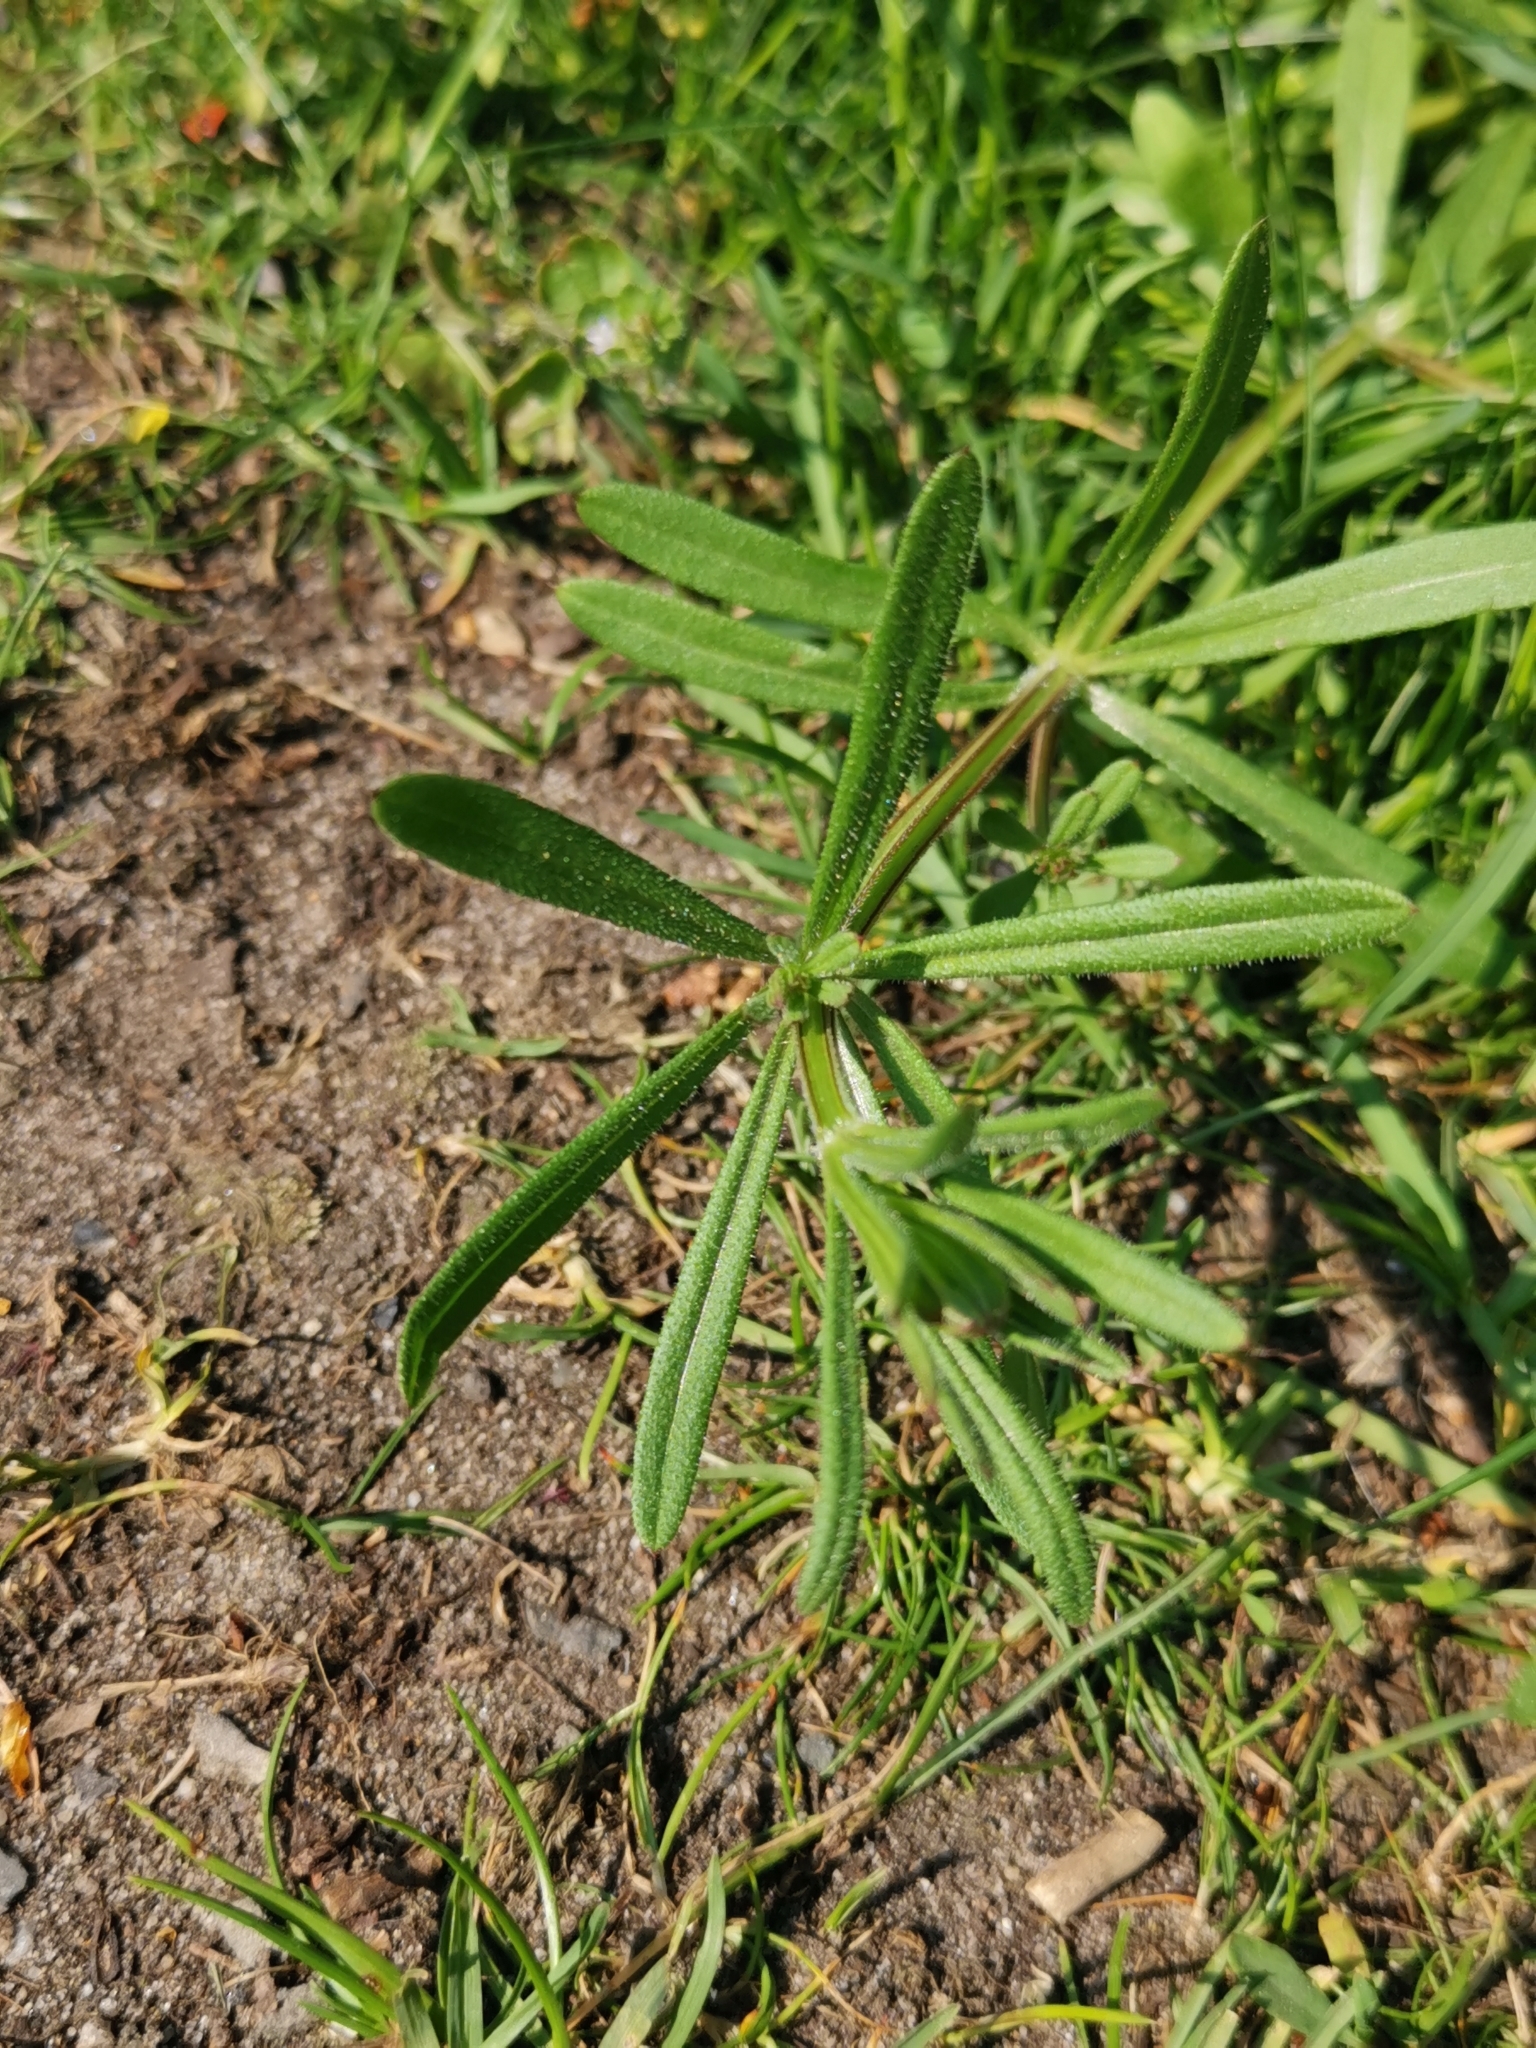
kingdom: Plantae
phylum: Tracheophyta
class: Magnoliopsida
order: Gentianales
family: Rubiaceae
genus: Galium
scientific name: Galium aparine
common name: Cleavers
